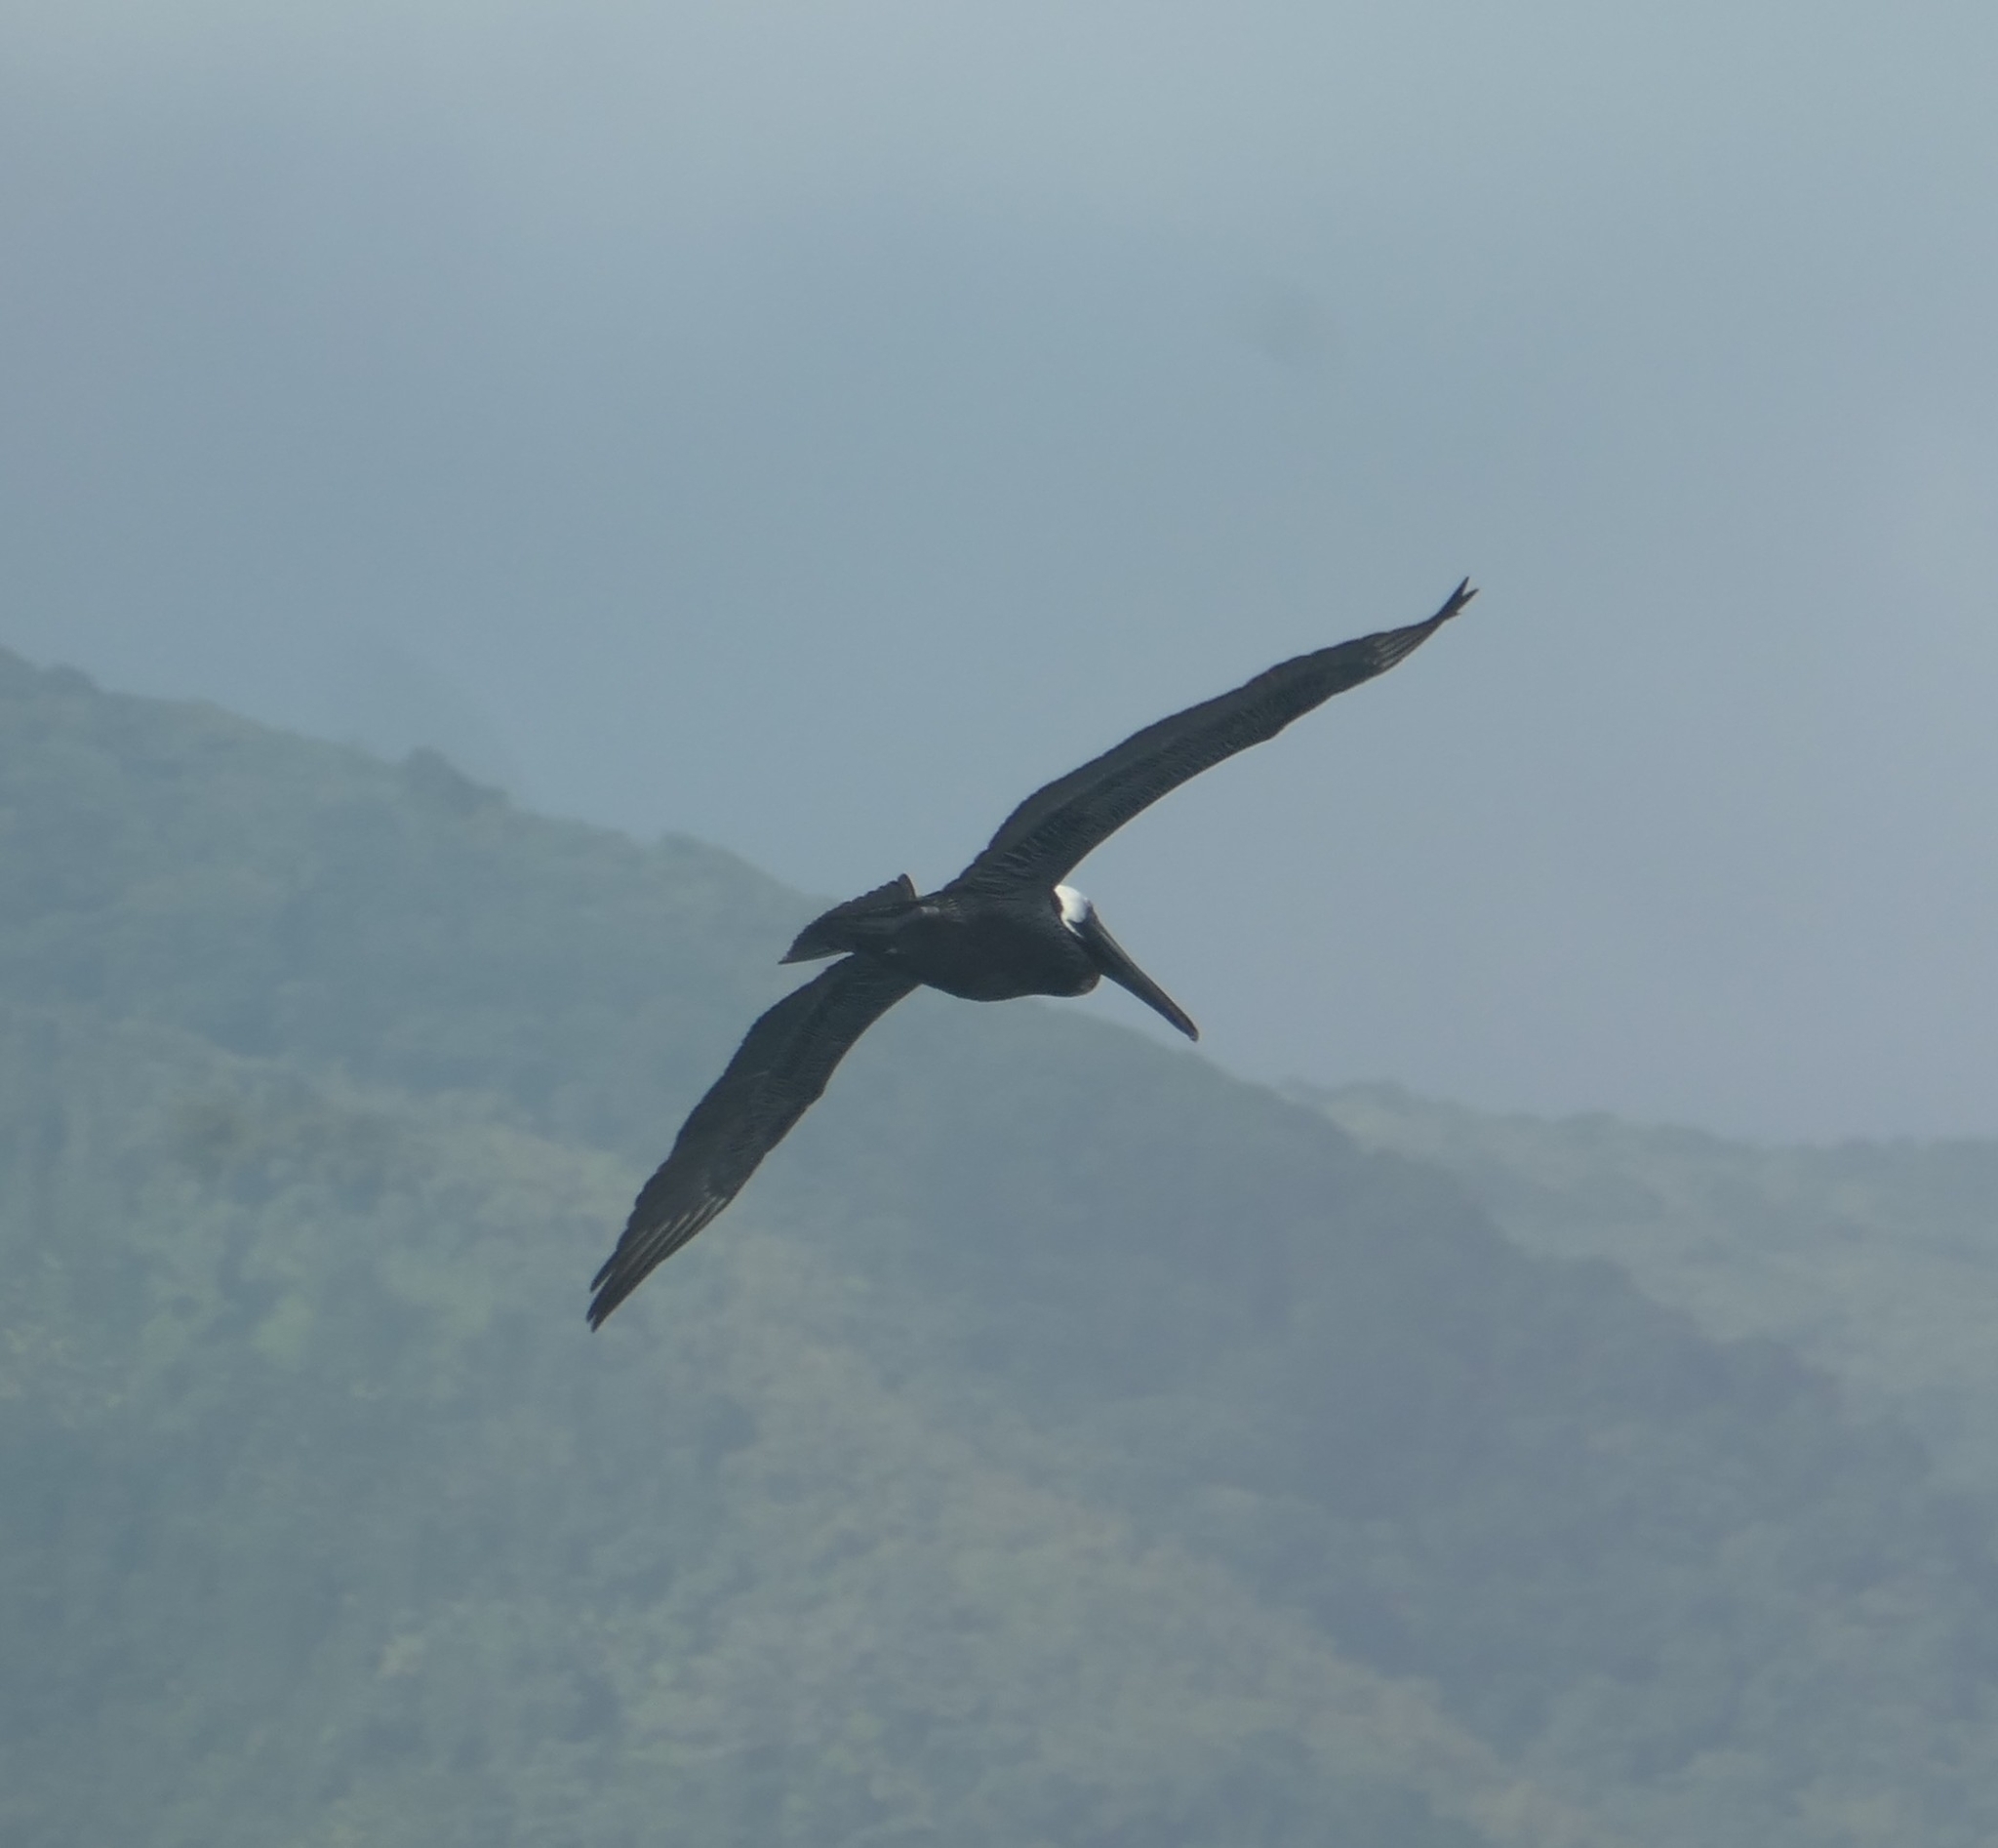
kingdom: Animalia
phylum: Chordata
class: Aves
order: Pelecaniformes
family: Pelecanidae
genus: Pelecanus
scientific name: Pelecanus occidentalis
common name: Brown pelican
